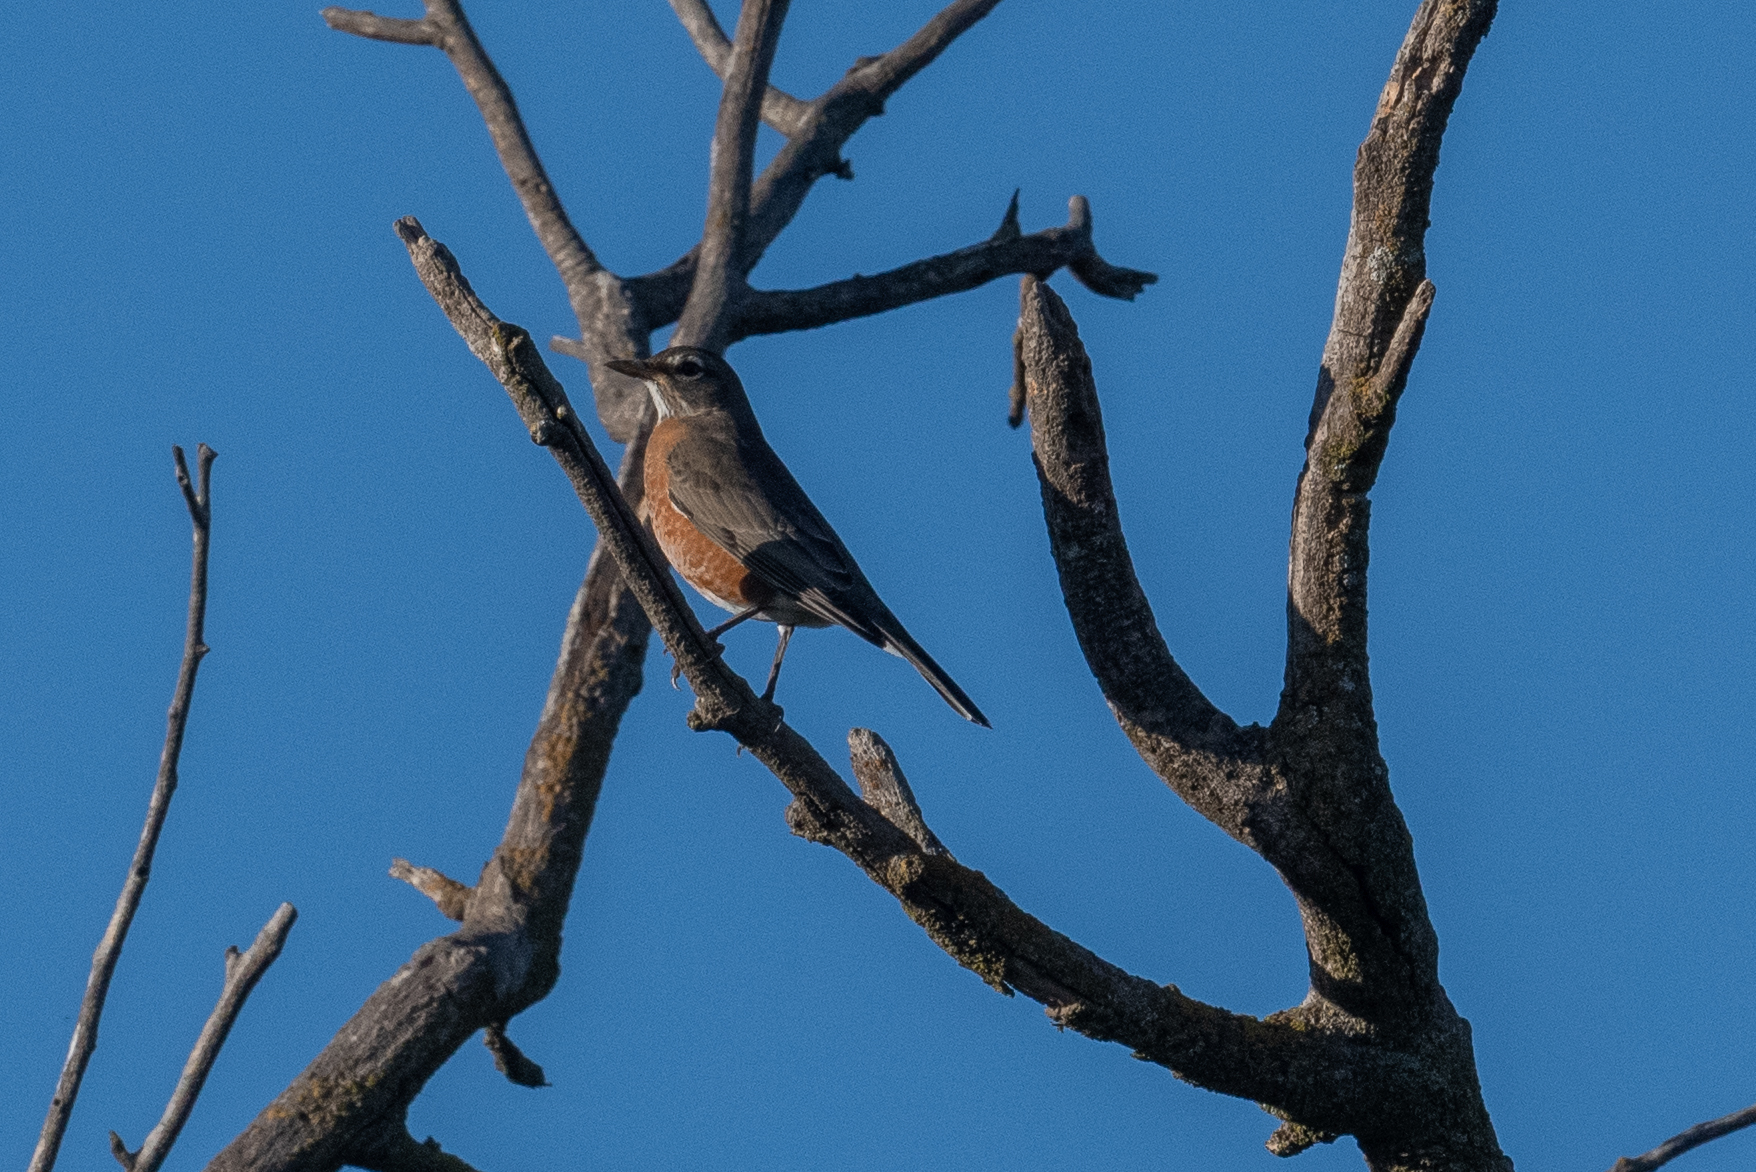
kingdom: Animalia
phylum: Chordata
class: Aves
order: Passeriformes
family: Turdidae
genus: Turdus
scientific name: Turdus migratorius
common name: American robin
